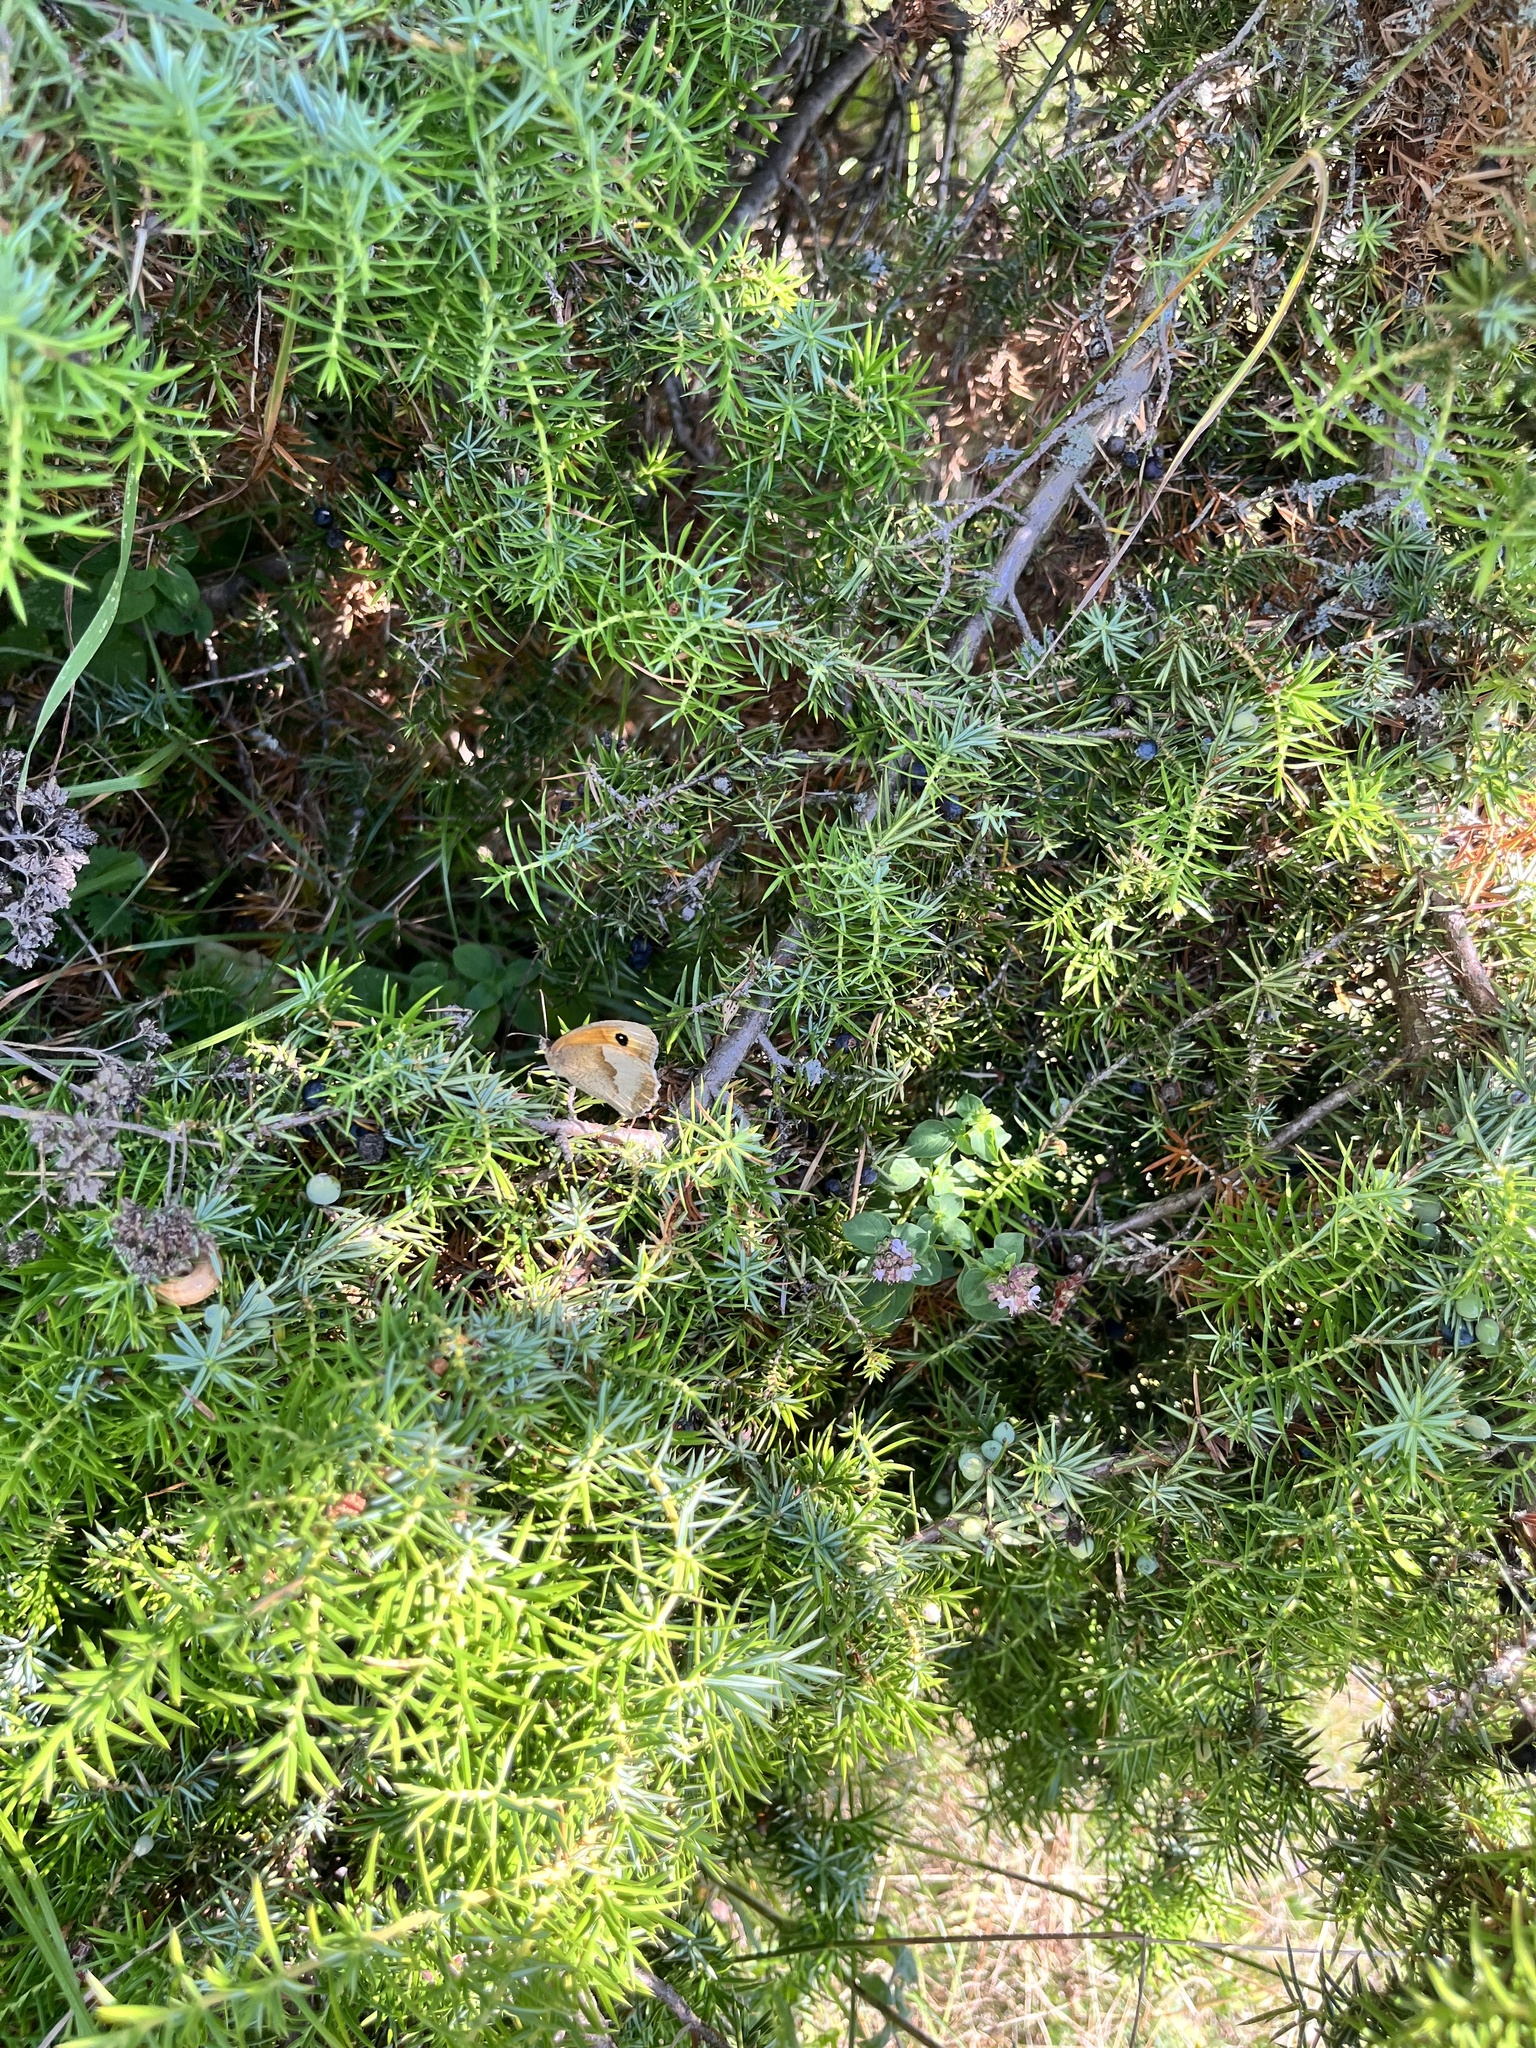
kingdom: Animalia
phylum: Arthropoda
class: Insecta
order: Lepidoptera
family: Nymphalidae
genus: Maniola
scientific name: Maniola jurtina
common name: Meadow brown
